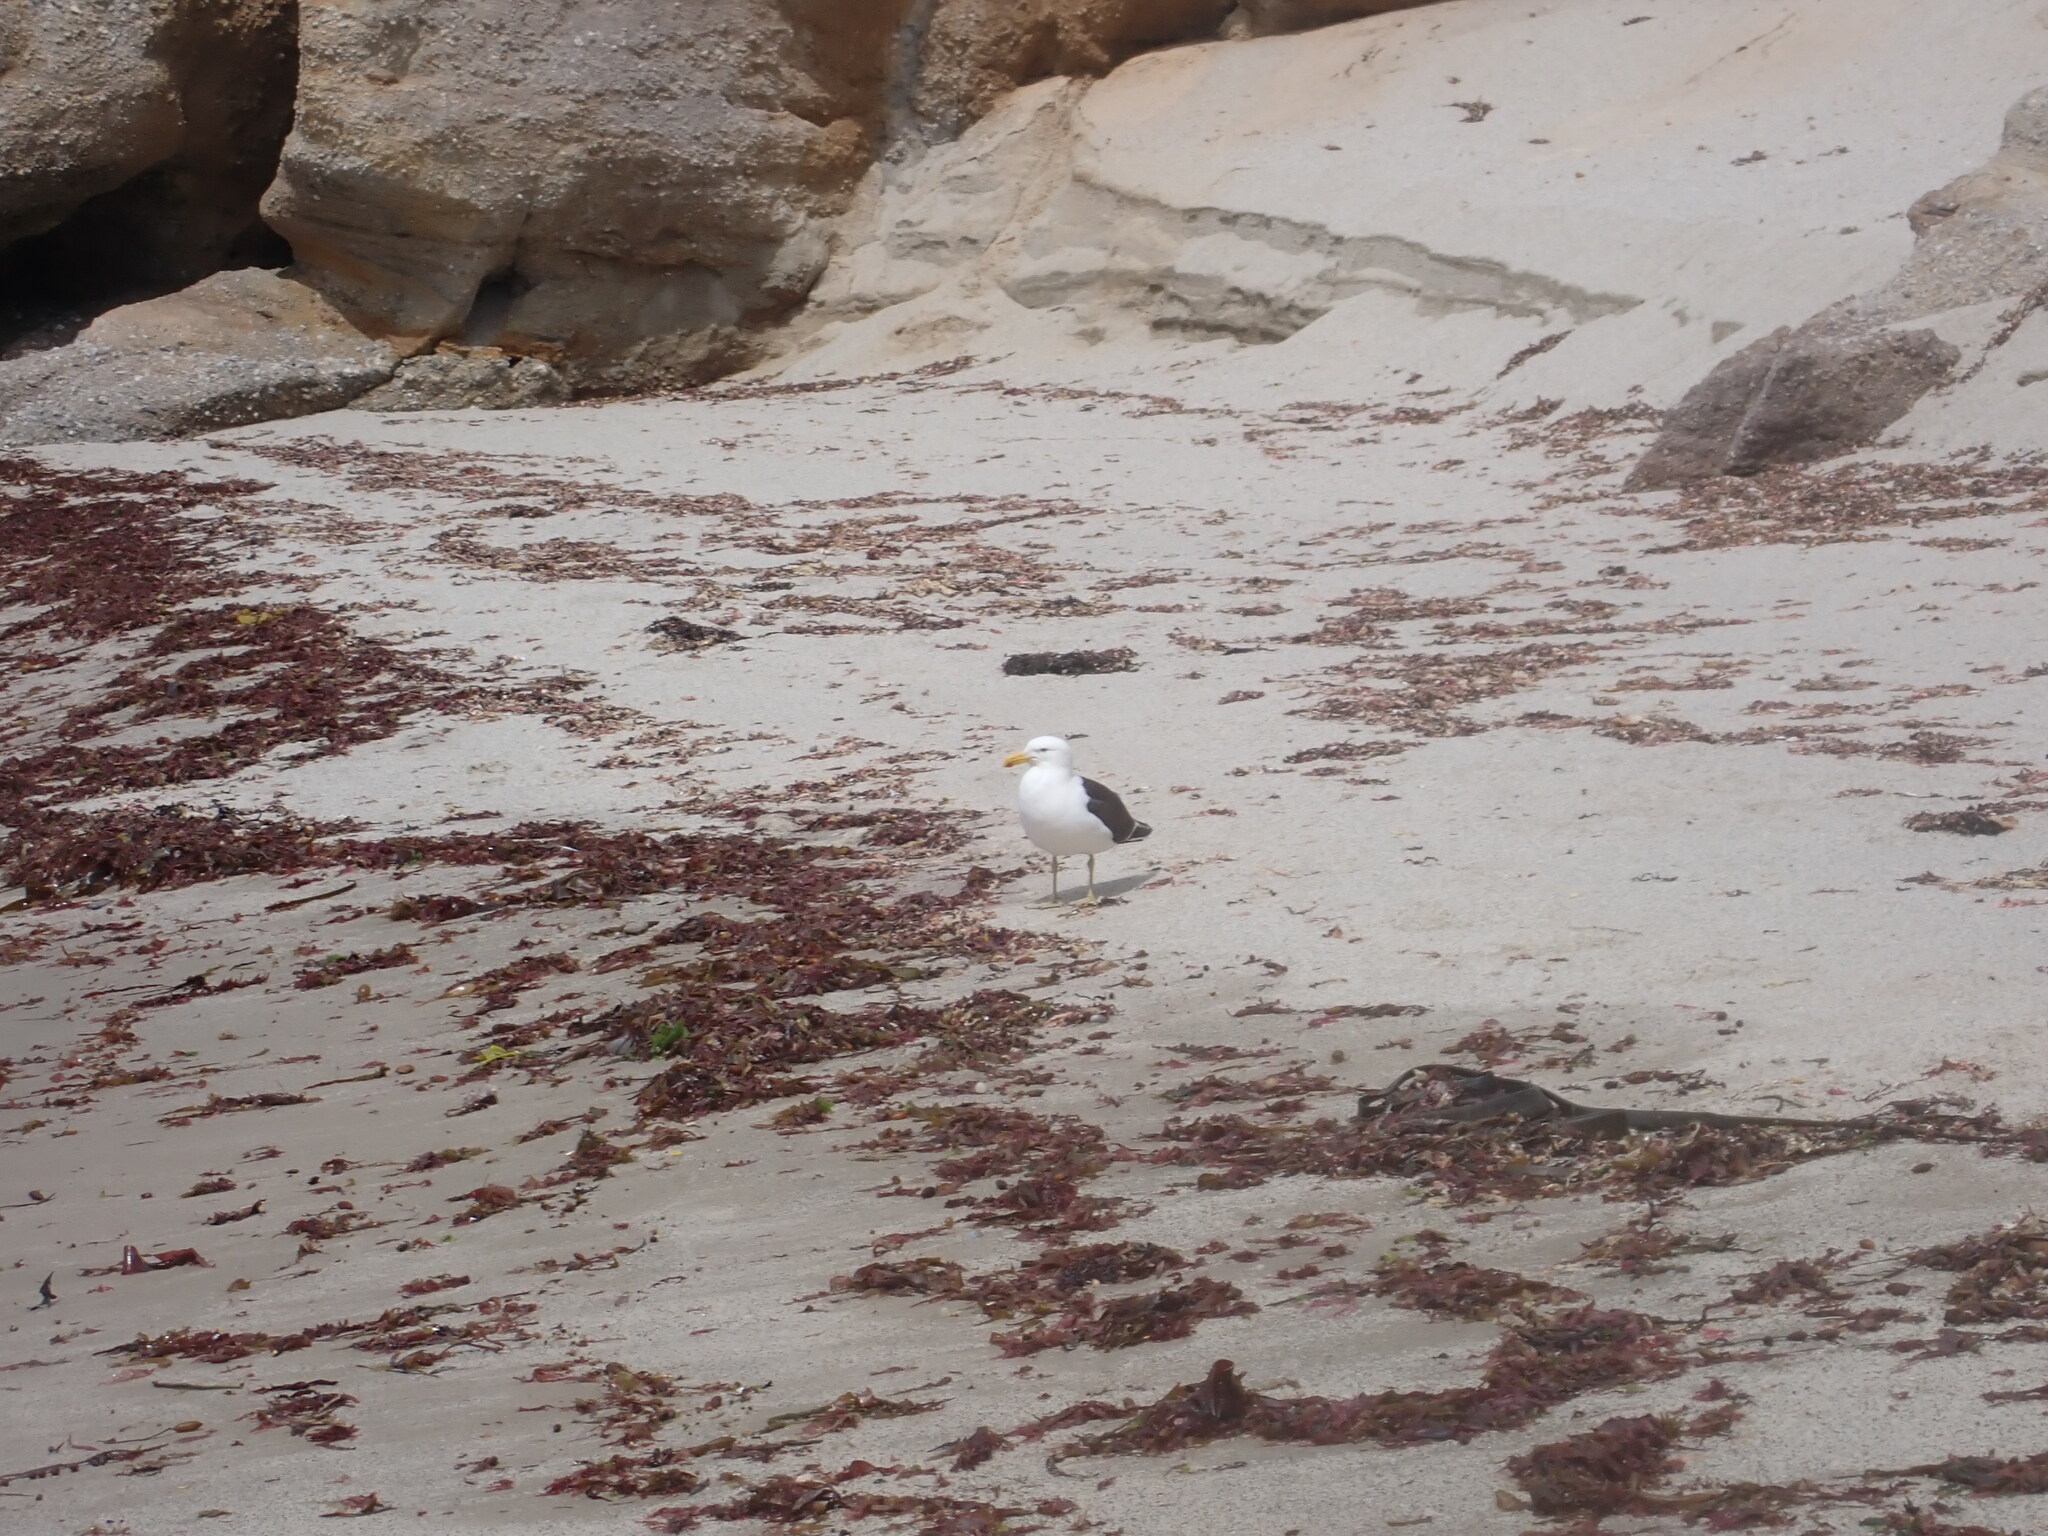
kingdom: Animalia
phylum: Chordata
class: Aves
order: Charadriiformes
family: Laridae
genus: Larus
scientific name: Larus dominicanus
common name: Kelp gull
